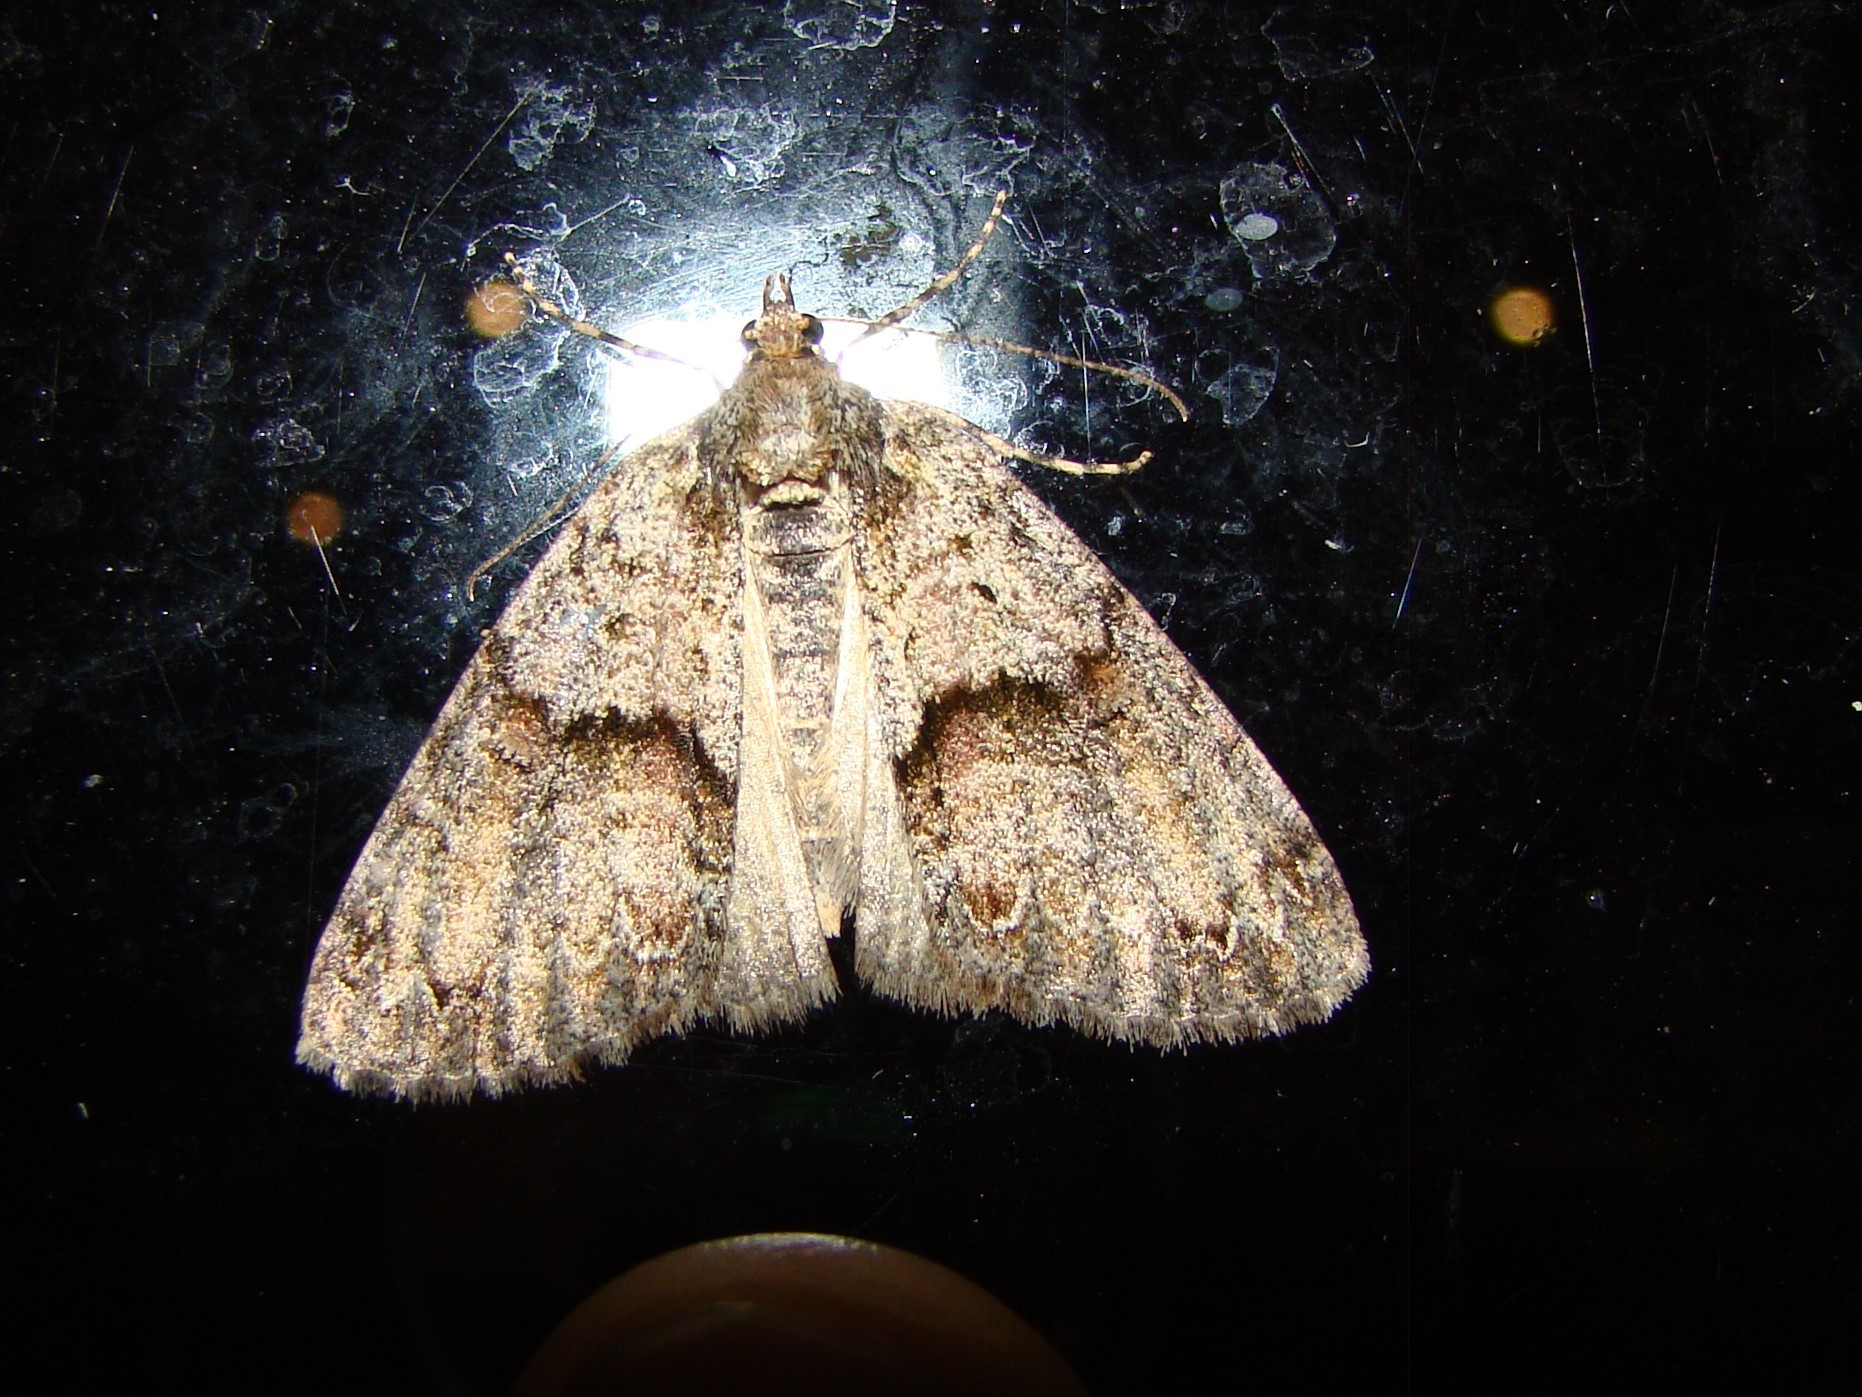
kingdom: Animalia
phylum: Arthropoda
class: Insecta
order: Lepidoptera
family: Geometridae
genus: Pseudocoremia
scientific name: Pseudocoremia suavis
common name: Common forest looper
